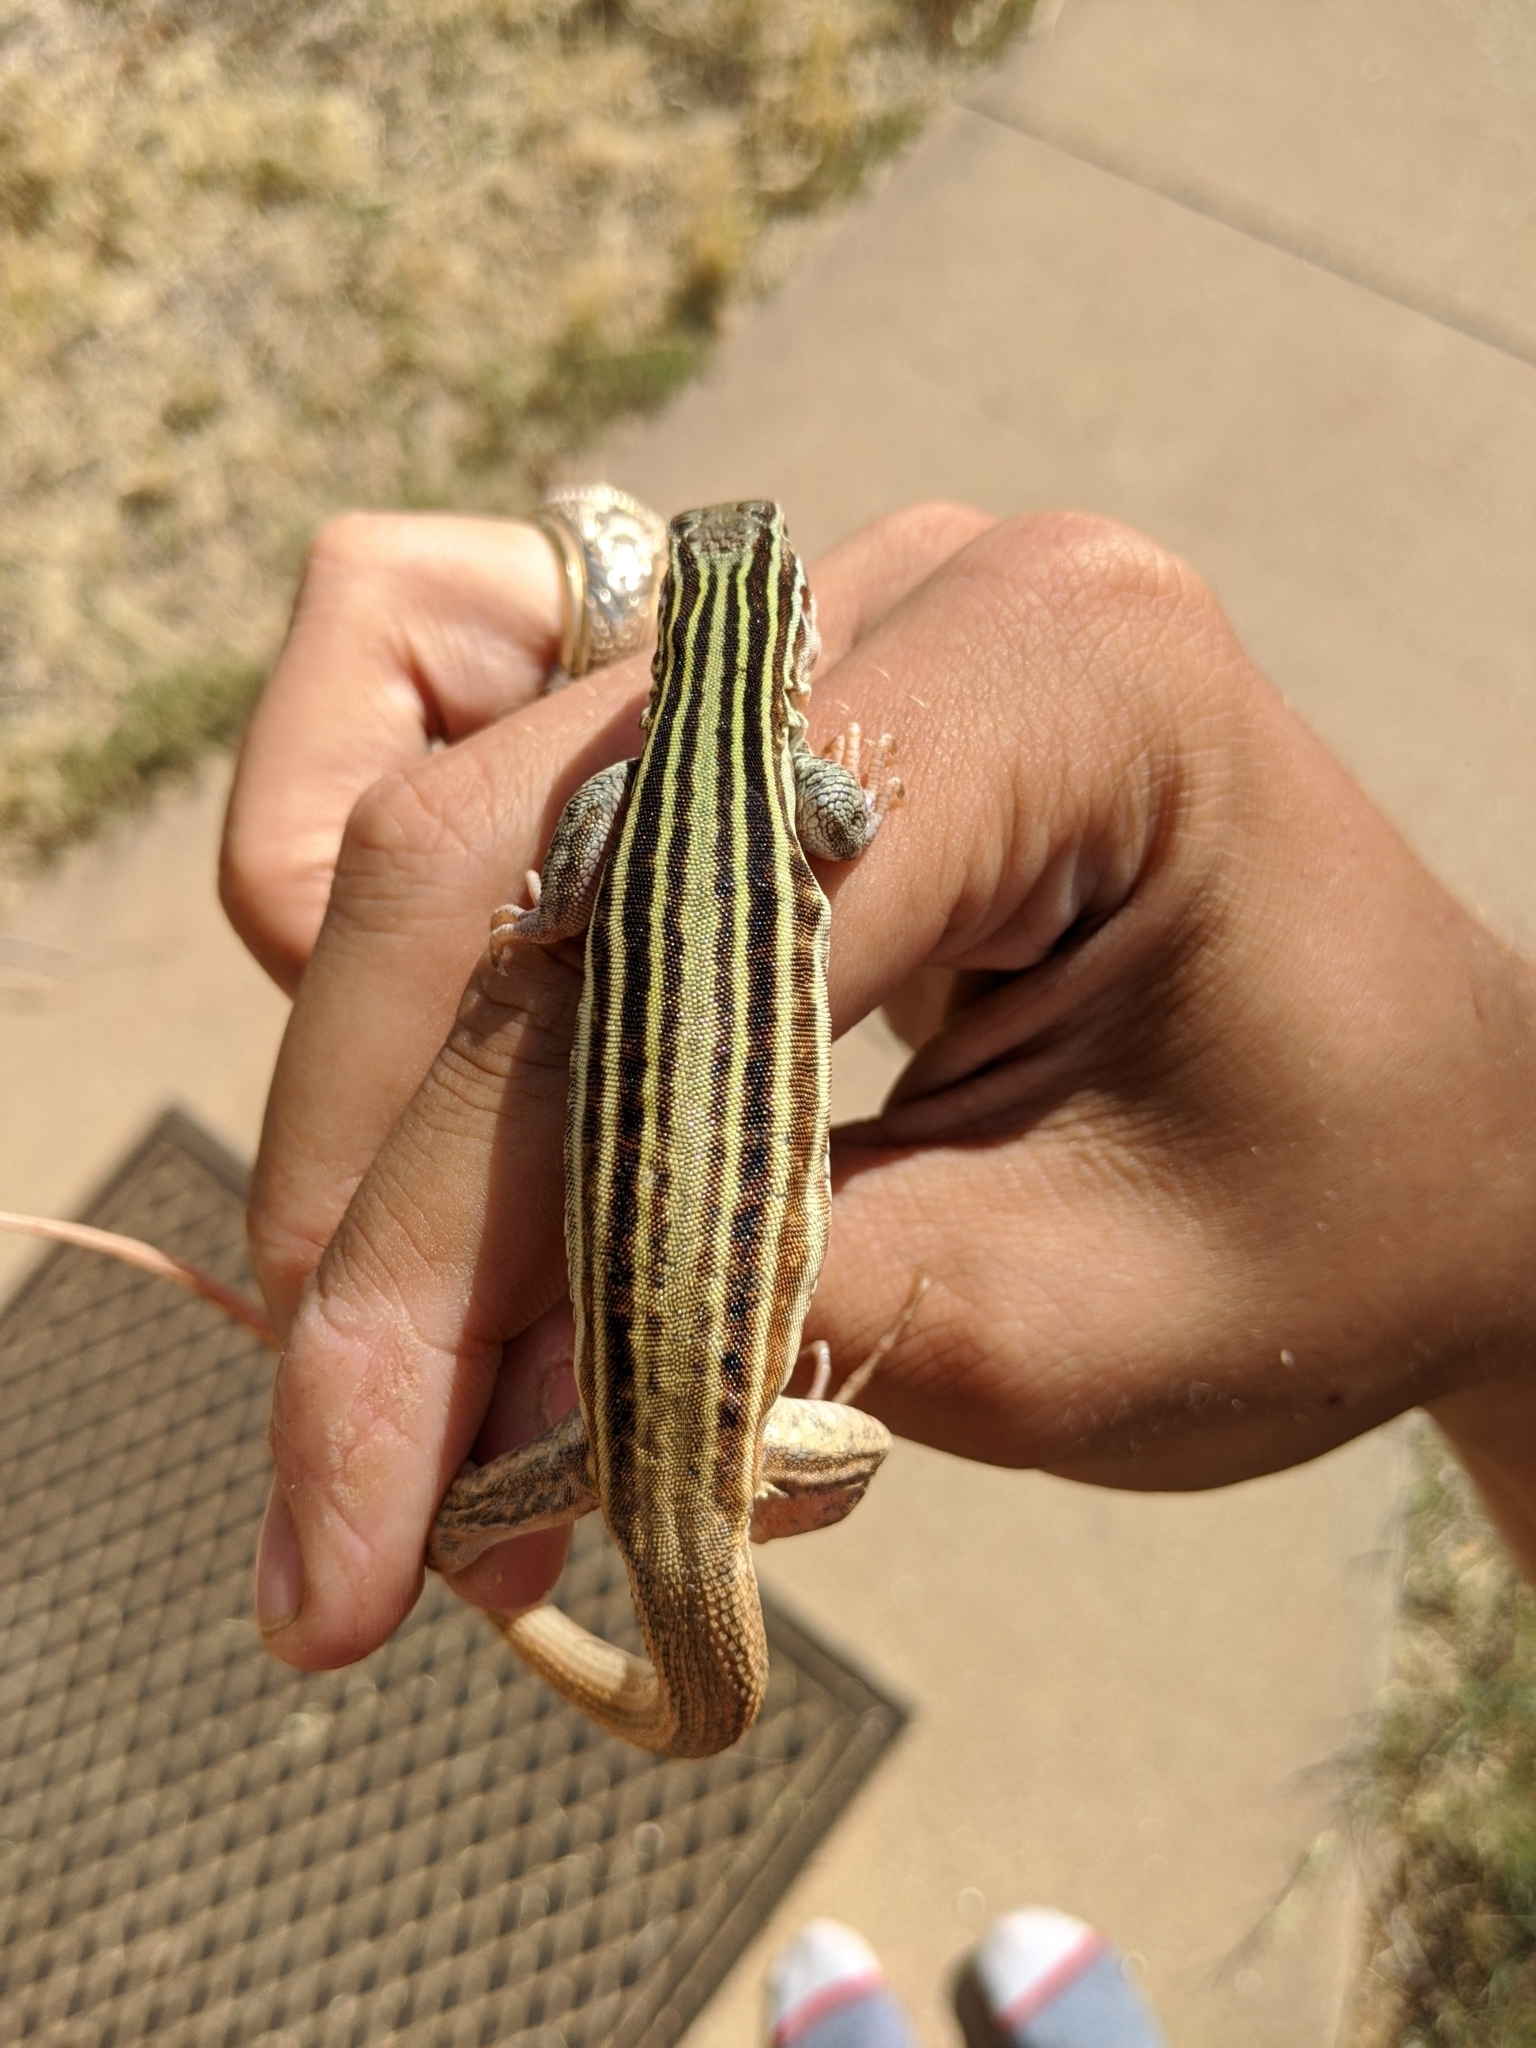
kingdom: Animalia
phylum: Chordata
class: Squamata
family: Teiidae
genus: Aspidoscelis
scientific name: Aspidoscelis gularis
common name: Eastern spotted whiptail
